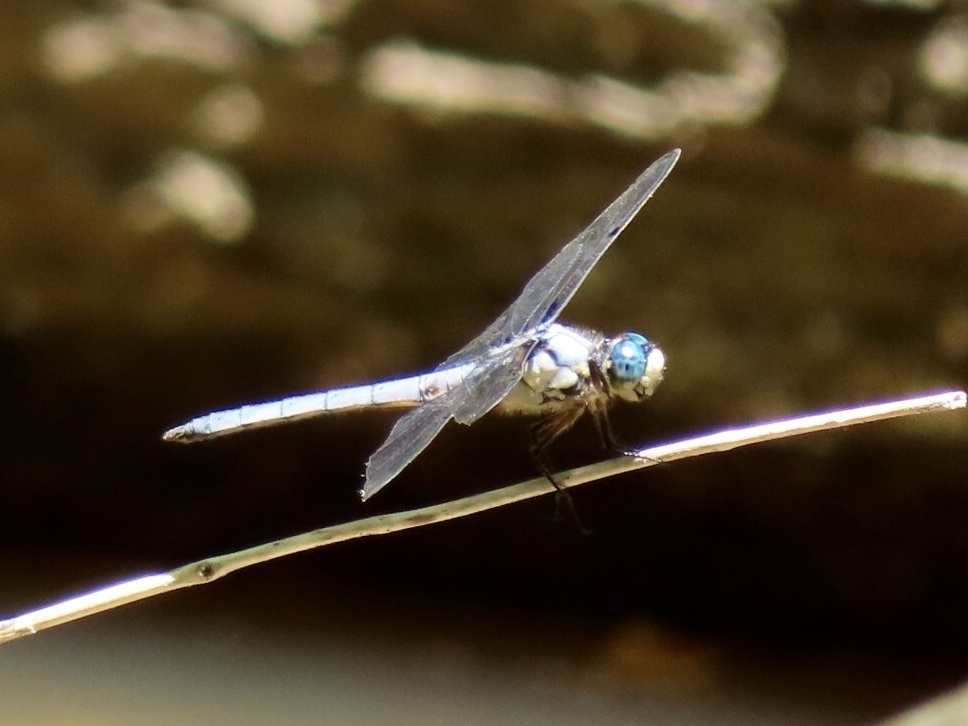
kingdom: Animalia
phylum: Arthropoda
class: Insecta
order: Odonata
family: Libellulidae
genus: Libellula
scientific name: Libellula vibrans
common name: Great blue skimmer
